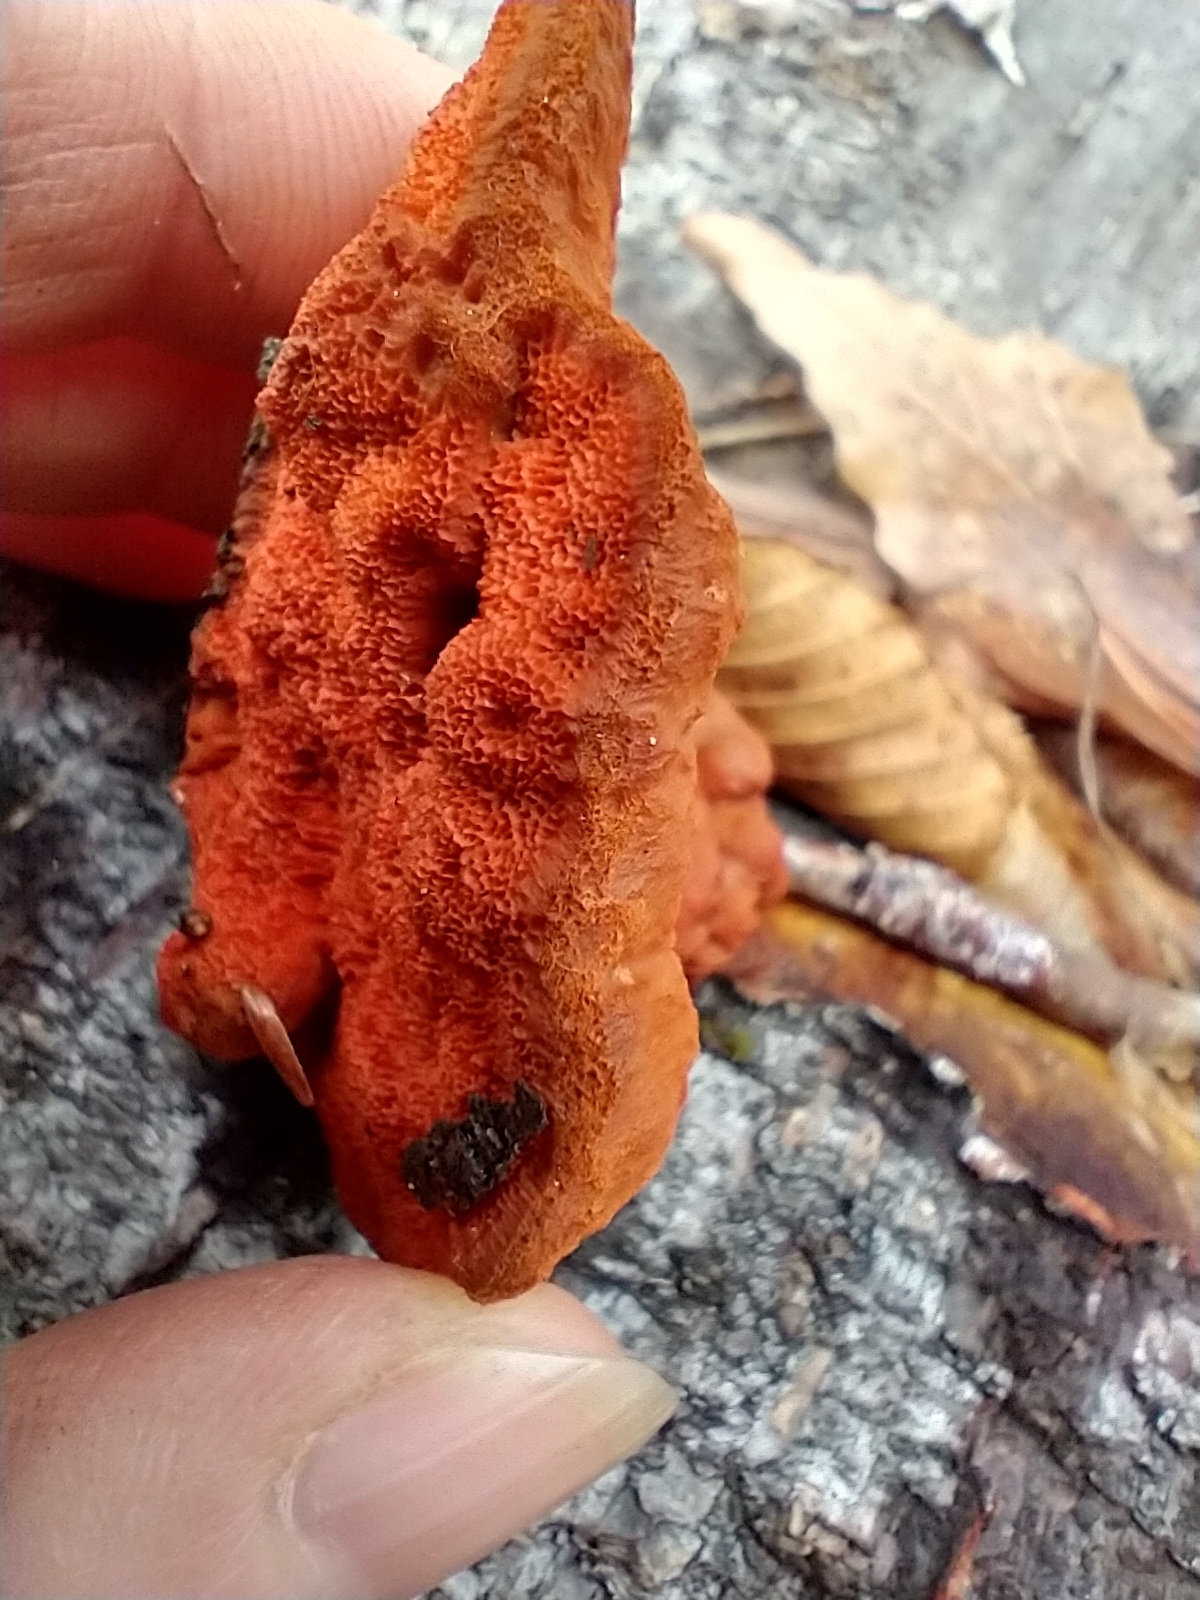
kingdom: Fungi
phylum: Basidiomycota
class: Agaricomycetes
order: Polyporales
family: Polyporaceae
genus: Trametes
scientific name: Trametes cinnabarina
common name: Northern cinnabar polypore
